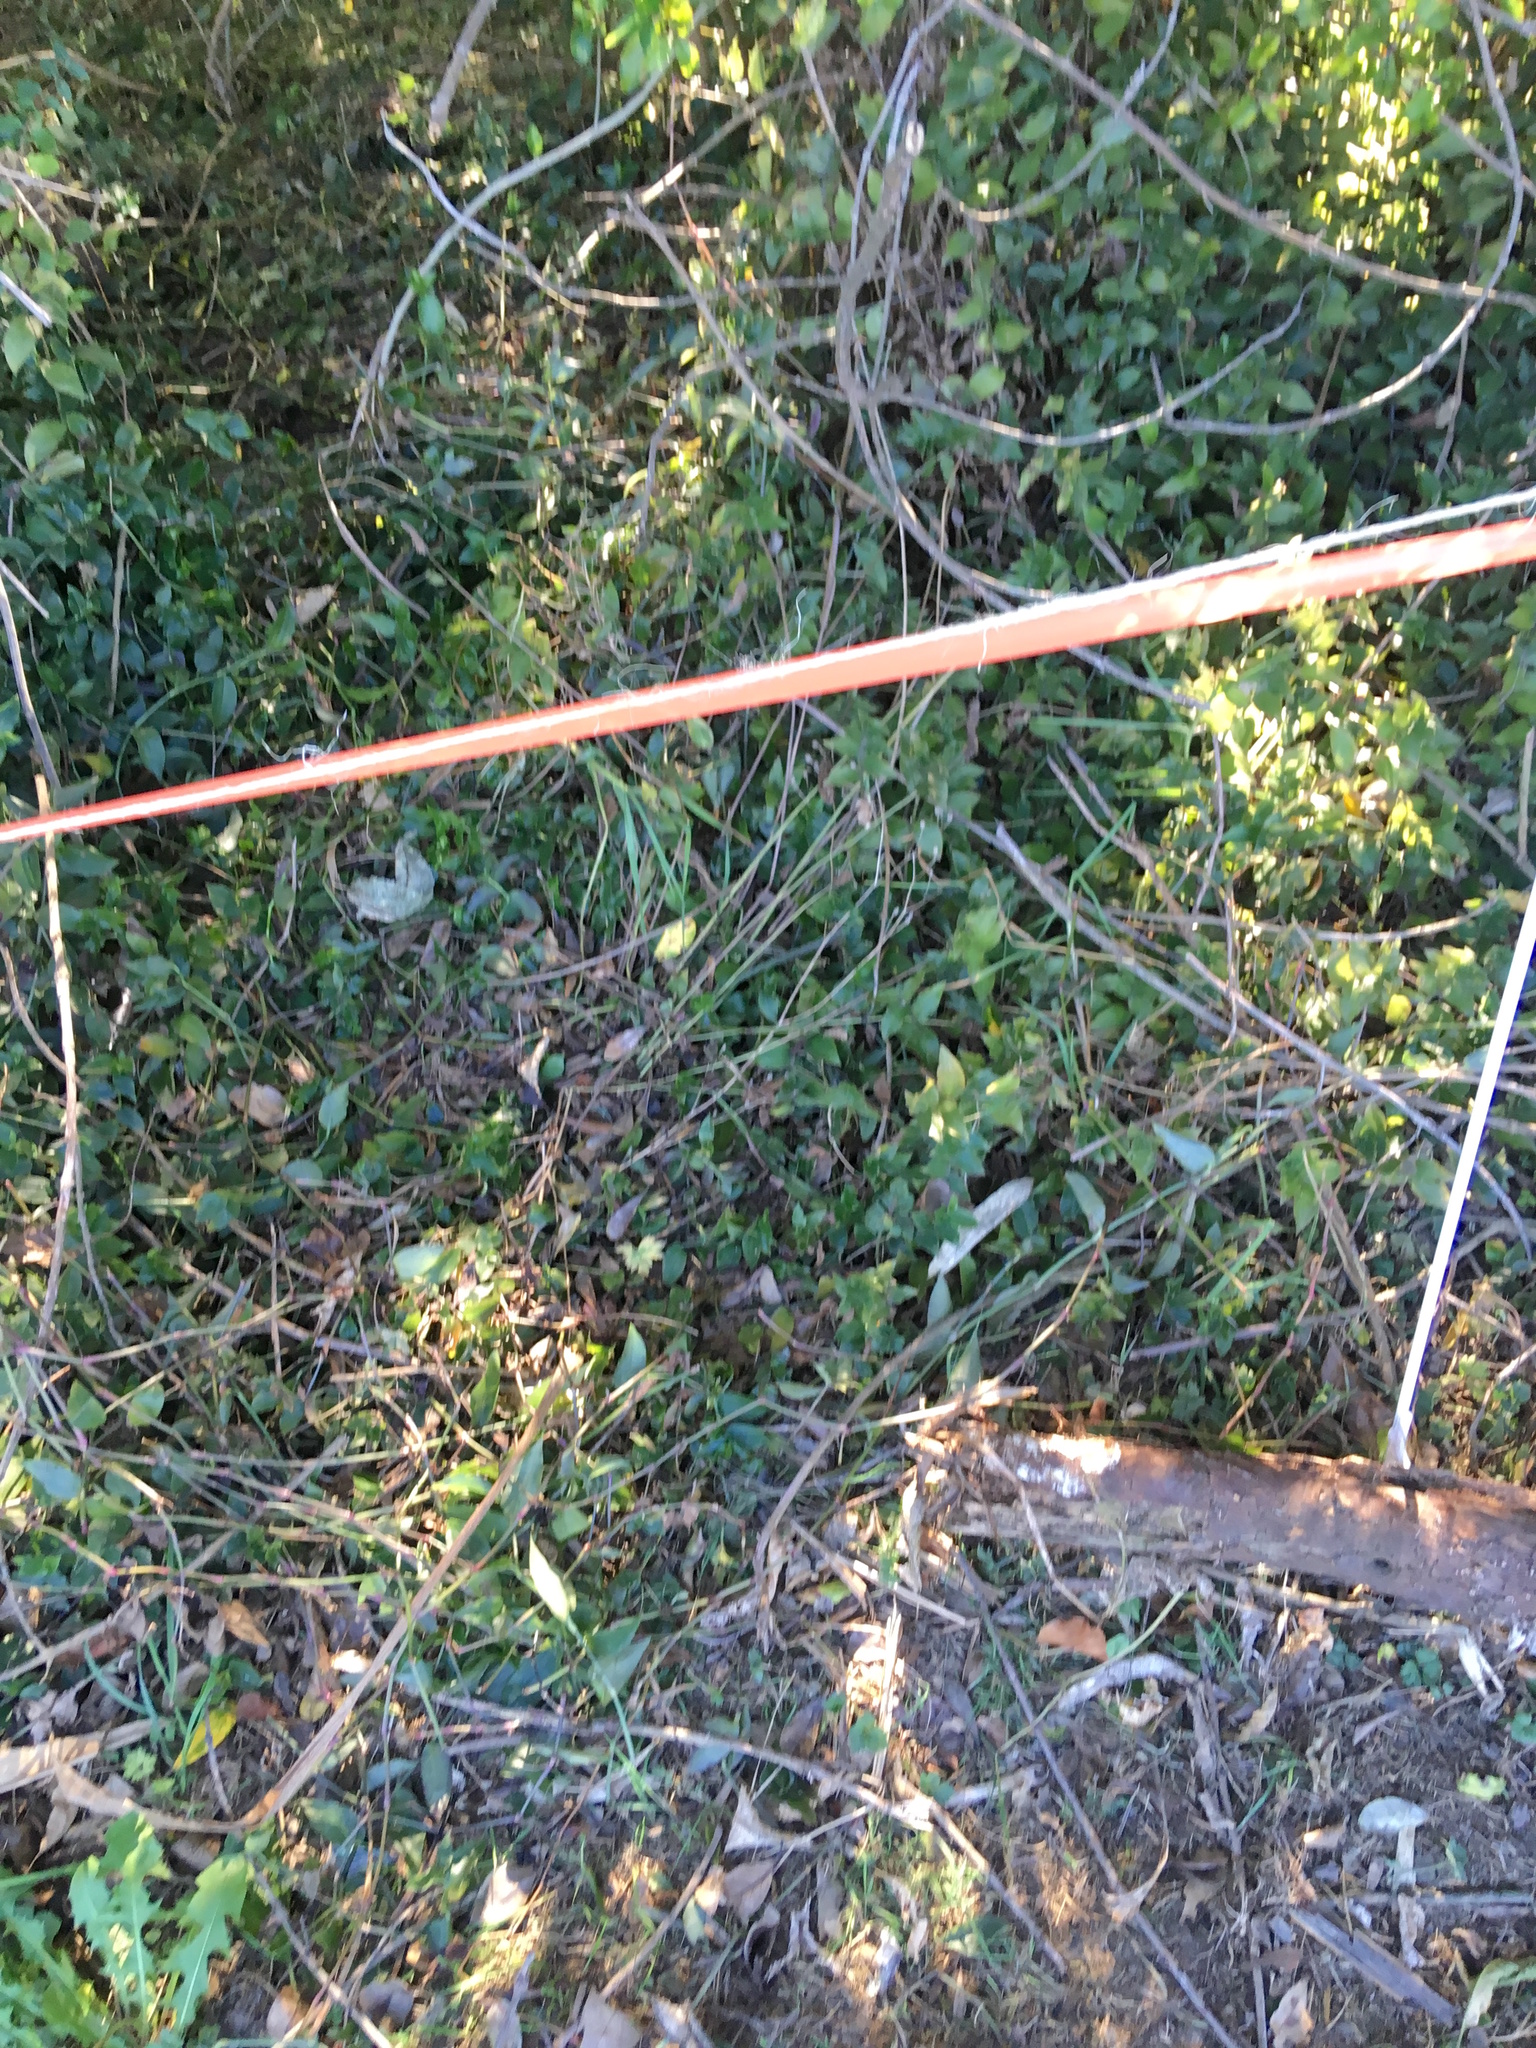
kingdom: Plantae
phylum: Tracheophyta
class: Liliopsida
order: Commelinales
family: Commelinaceae
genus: Tradescantia
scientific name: Tradescantia fluminensis
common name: Wandering-jew
